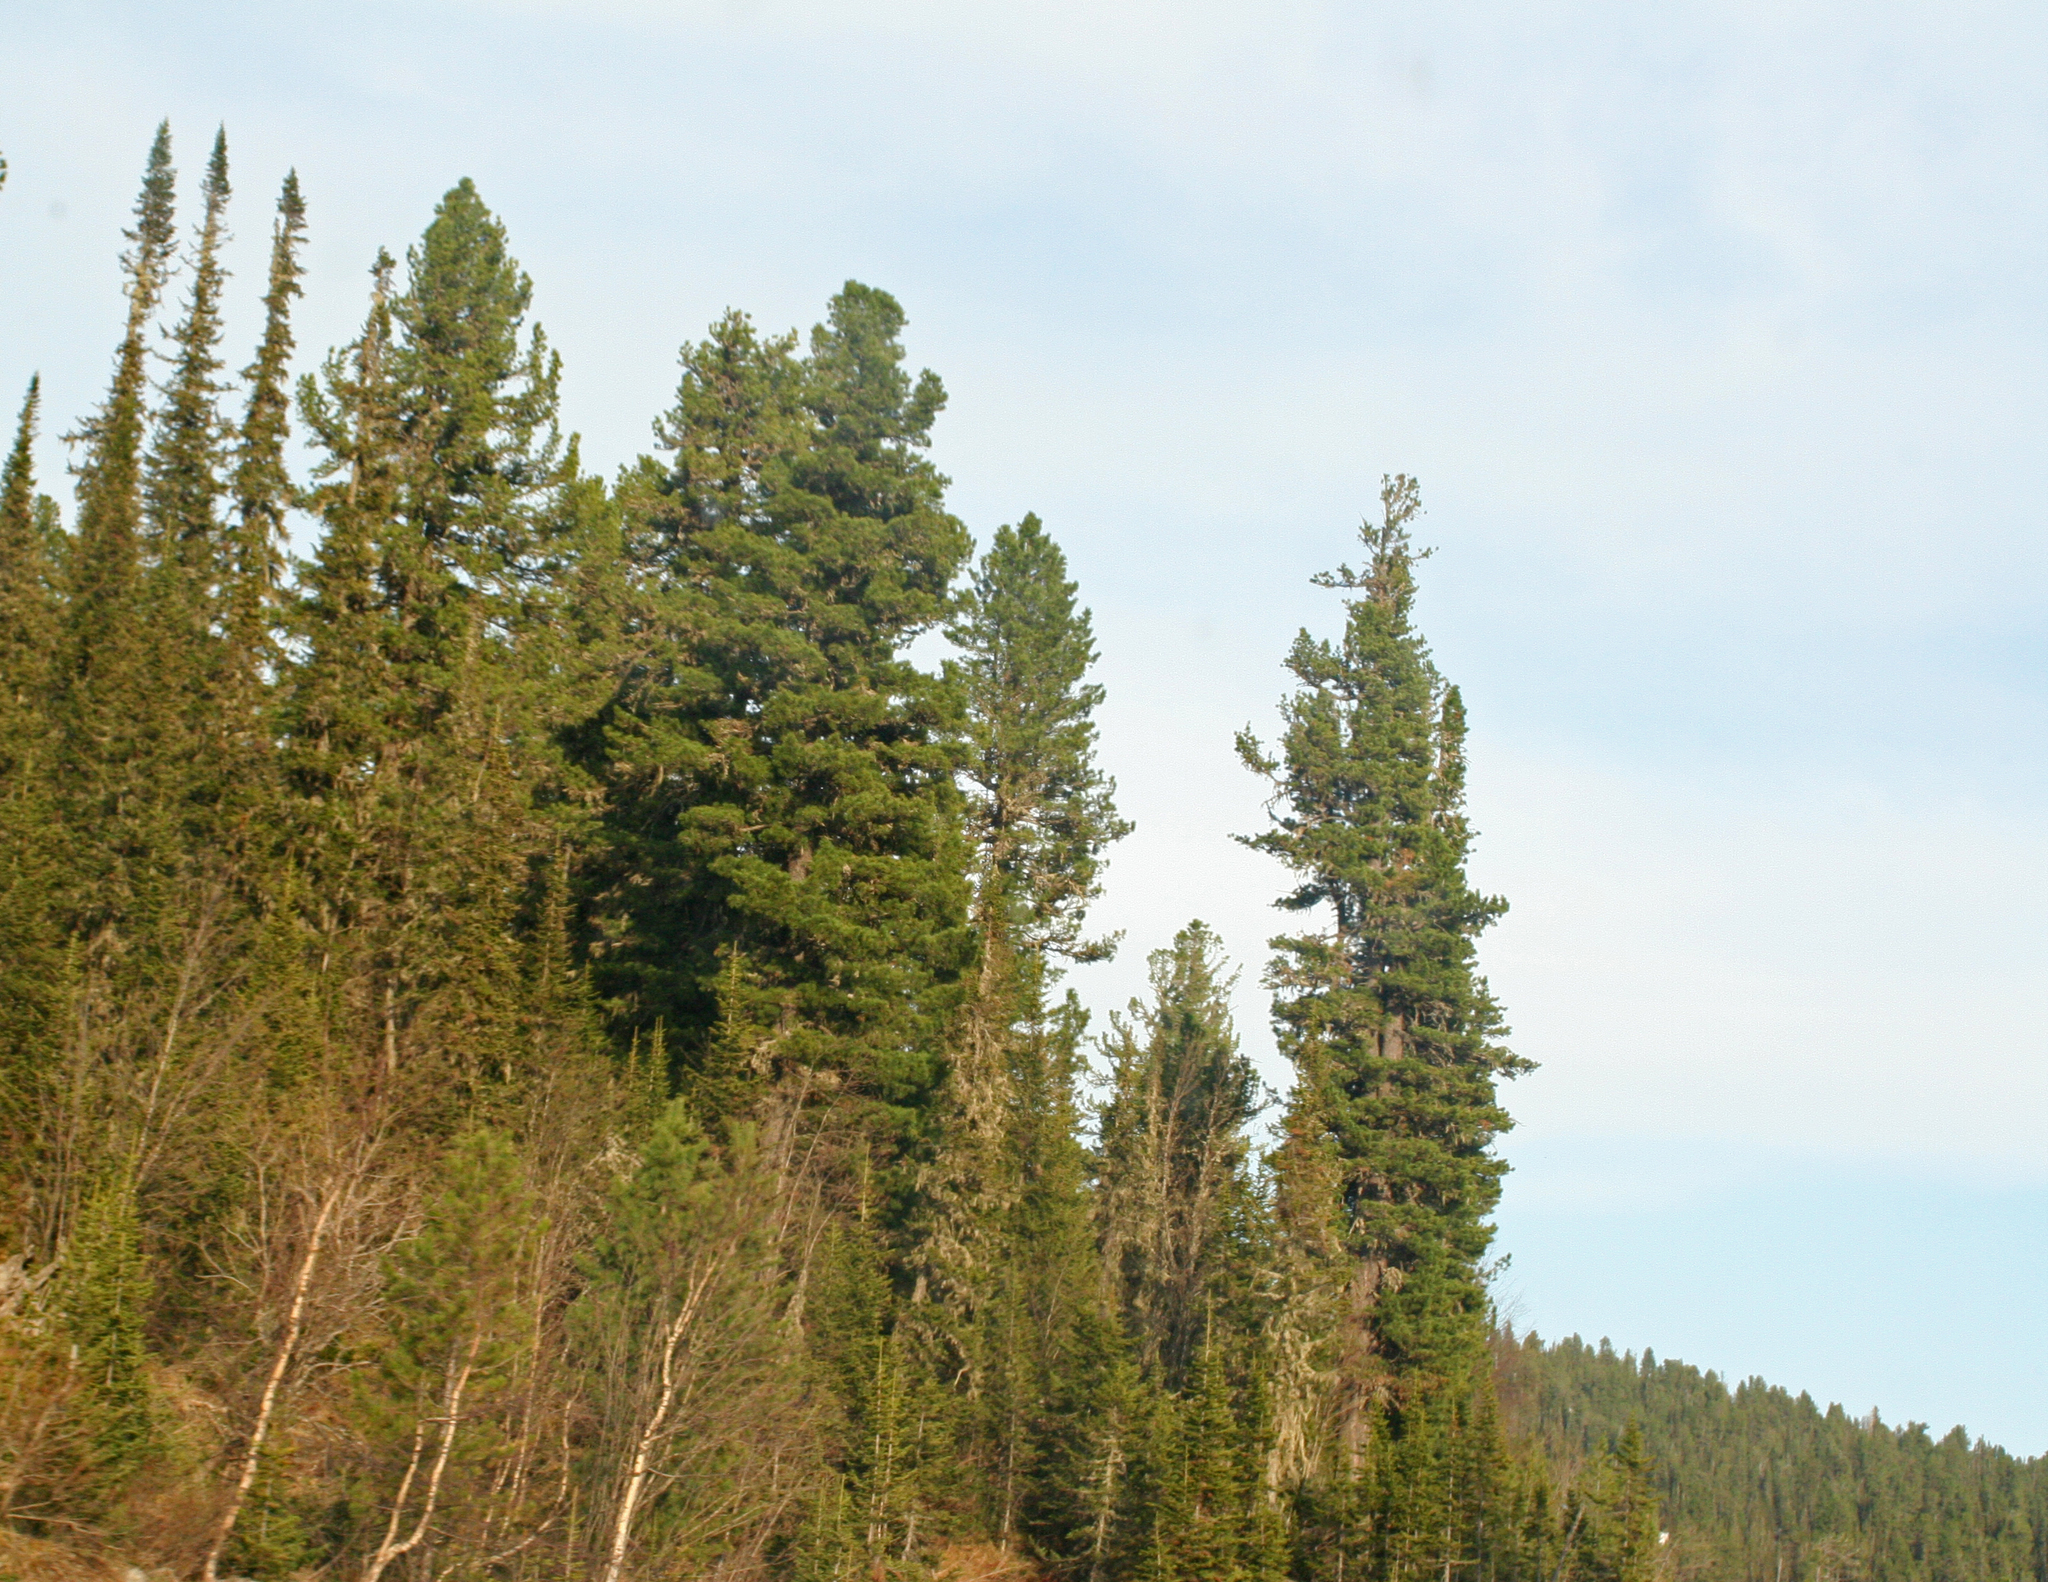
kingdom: Plantae
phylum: Tracheophyta
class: Pinopsida
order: Pinales
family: Pinaceae
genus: Pinus
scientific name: Pinus sibirica
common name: Siberian pine
